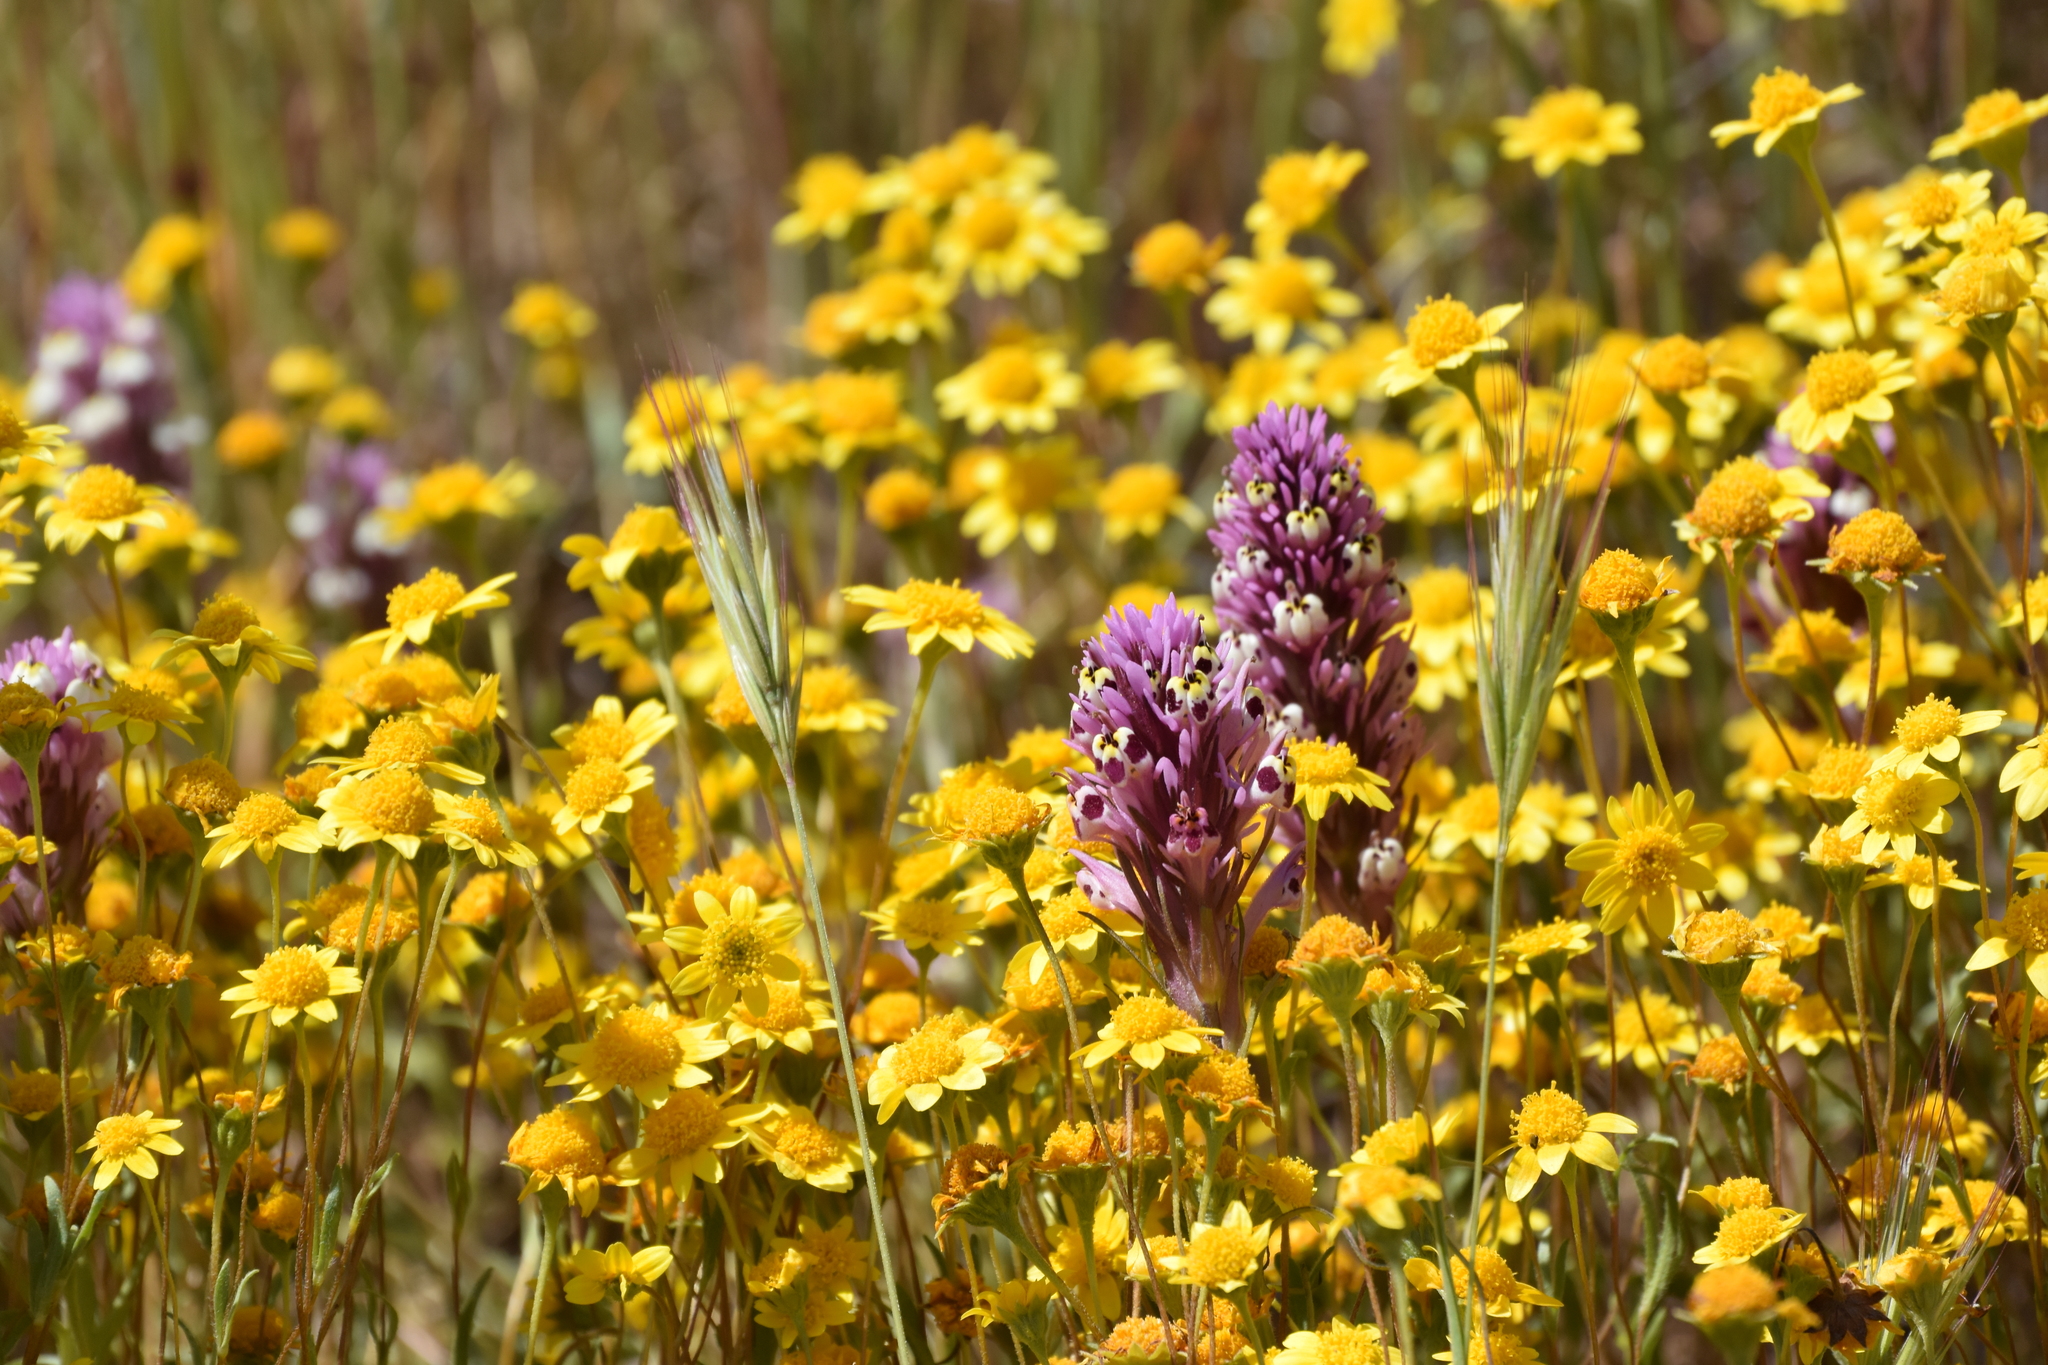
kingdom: Plantae
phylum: Tracheophyta
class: Magnoliopsida
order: Lamiales
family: Orobanchaceae
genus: Castilleja
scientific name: Castilleja densiflora
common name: Dense-flower indian paintbrush
